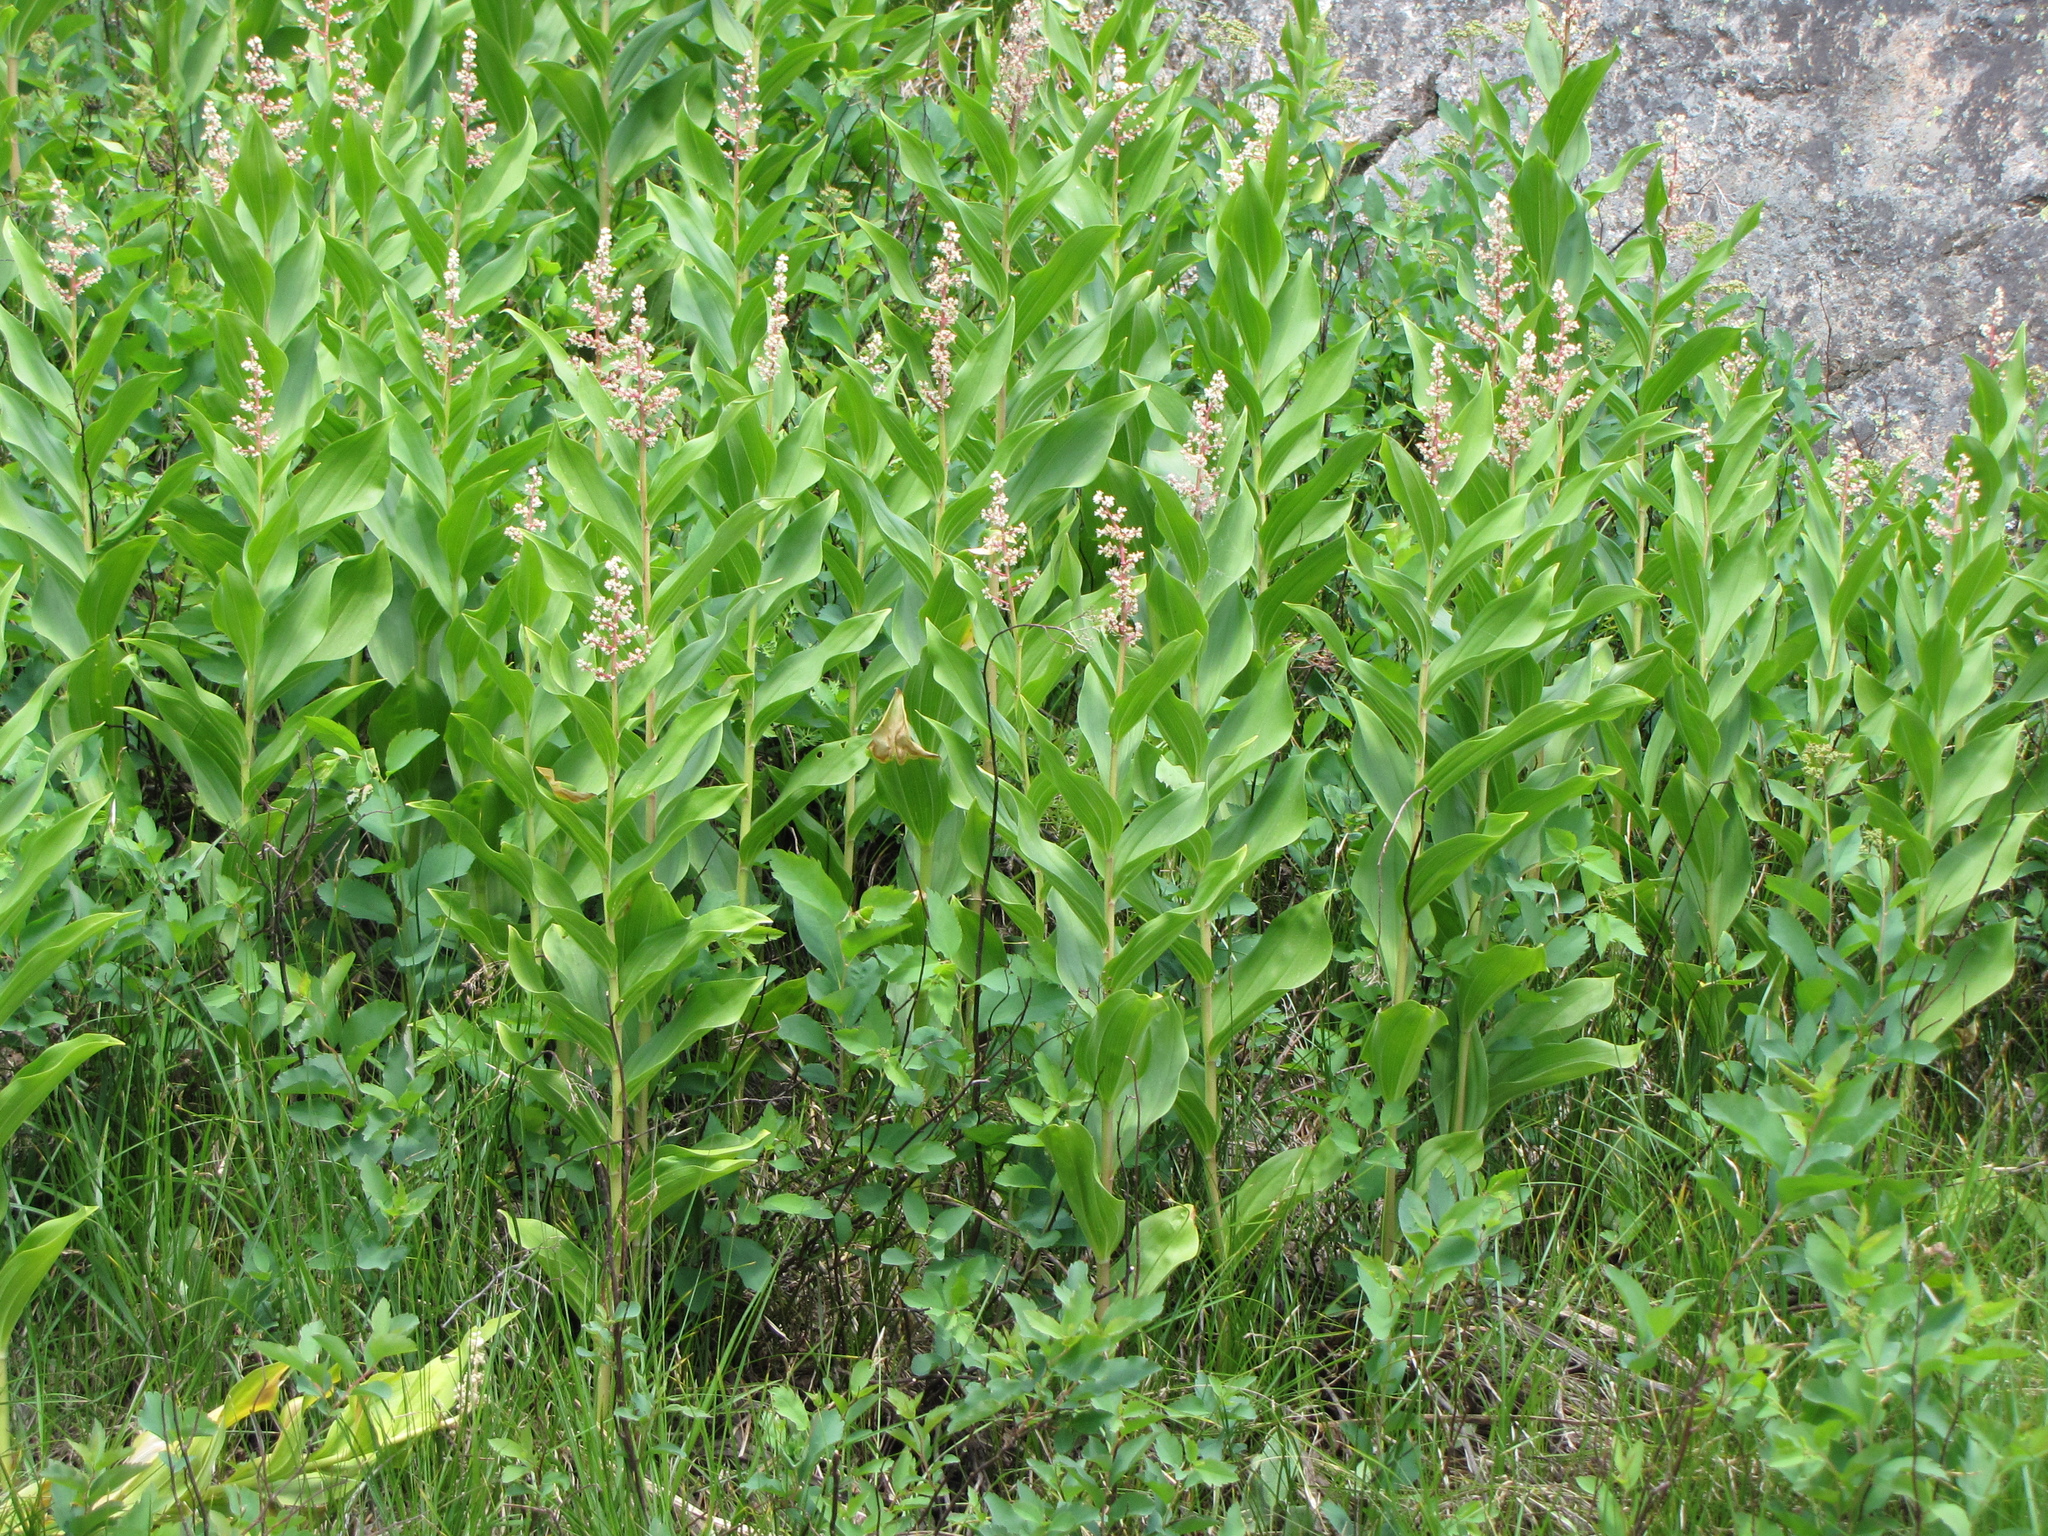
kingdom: Plantae
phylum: Tracheophyta
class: Liliopsida
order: Asparagales
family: Asparagaceae
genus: Maianthemum
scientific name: Maianthemum racemosum
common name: False spikenard
